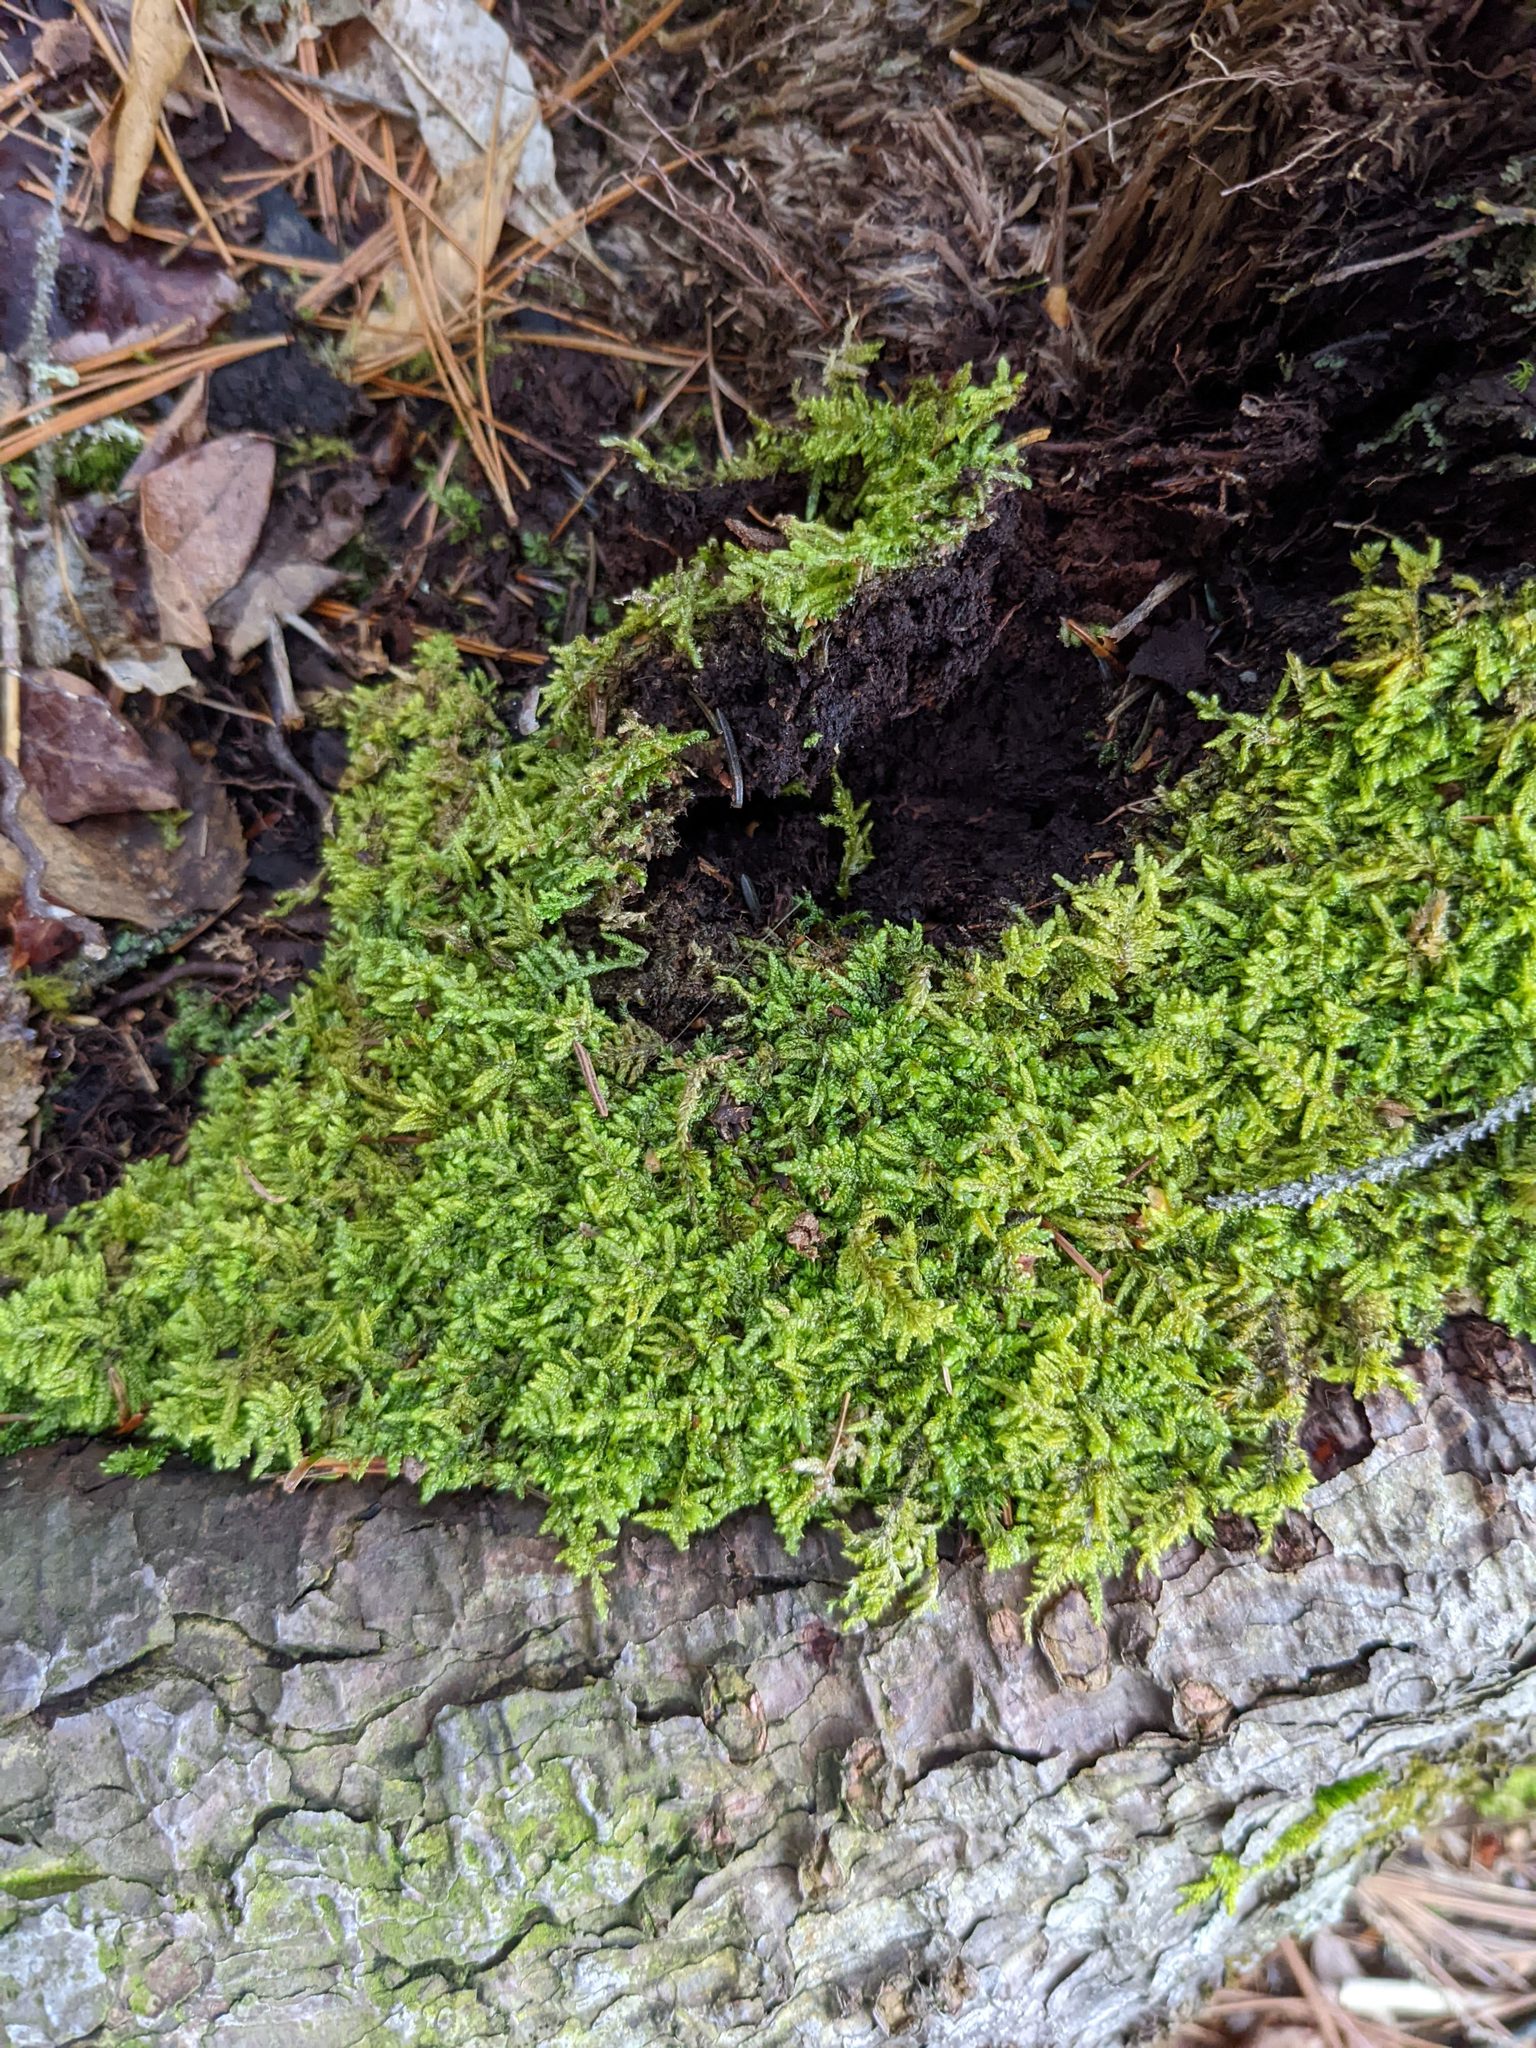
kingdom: Plantae
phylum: Bryophyta
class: Bryopsida
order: Hypnales
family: Callicladiaceae
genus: Callicladium
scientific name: Callicladium imponens
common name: Brocade moss
